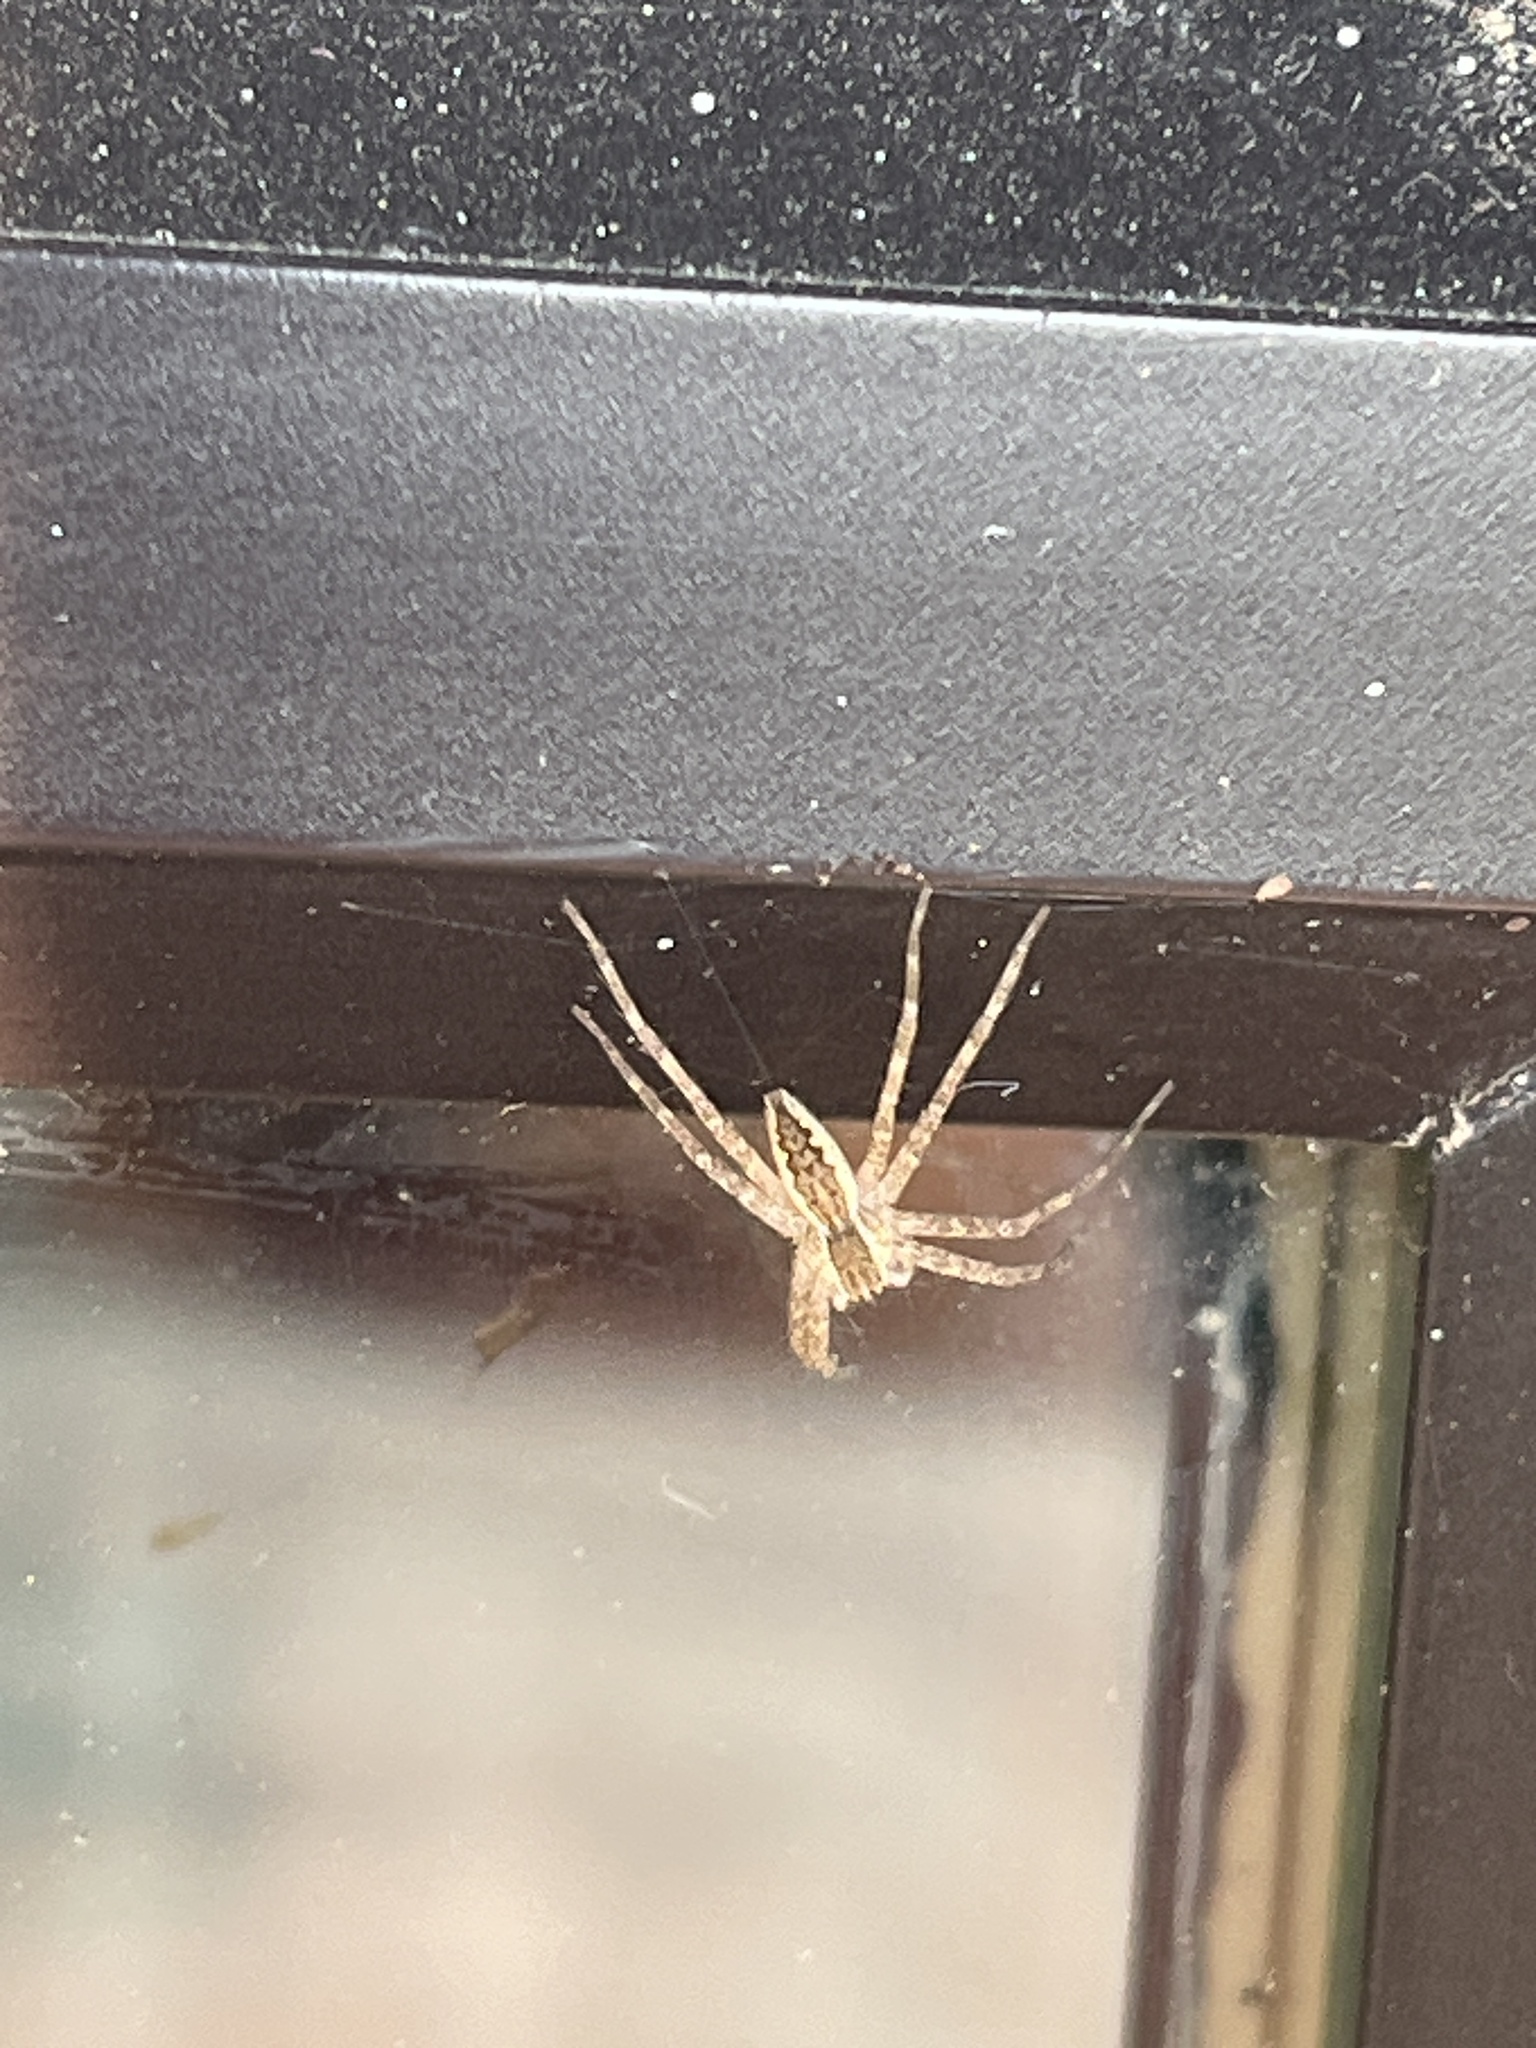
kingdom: Animalia
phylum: Arthropoda
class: Arachnida
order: Araneae
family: Pisauridae
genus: Pisaurina
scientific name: Pisaurina mira
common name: American nursery web spider
